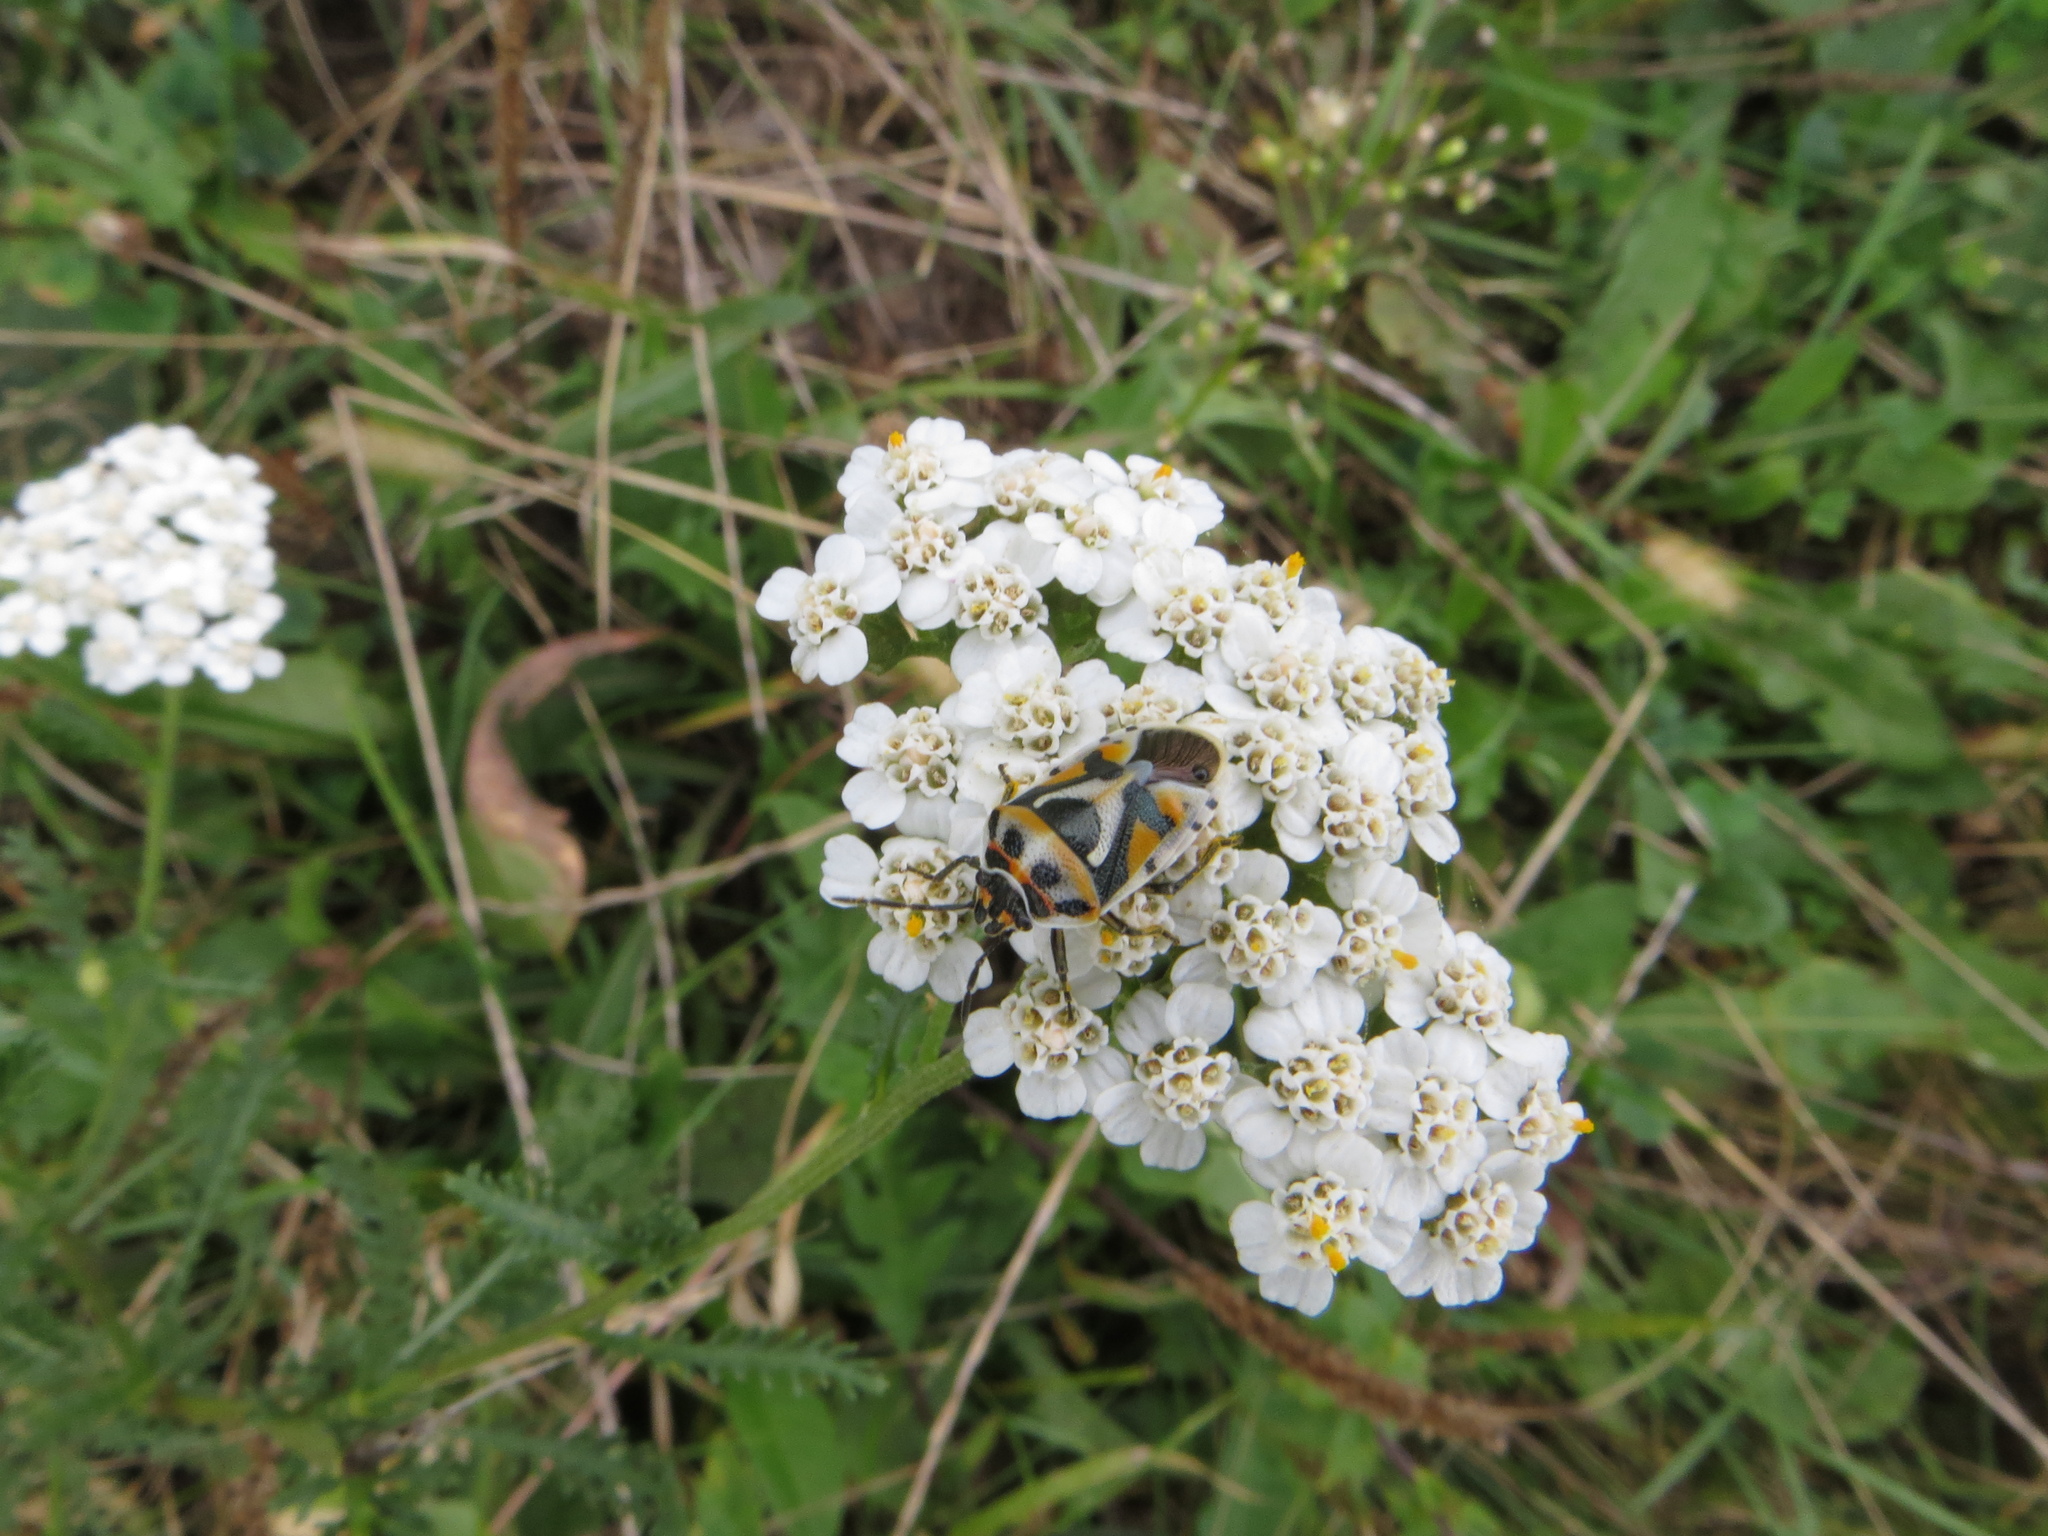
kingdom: Animalia
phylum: Arthropoda
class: Insecta
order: Hemiptera
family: Pentatomidae
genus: Eurydema
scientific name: Eurydema ornata
